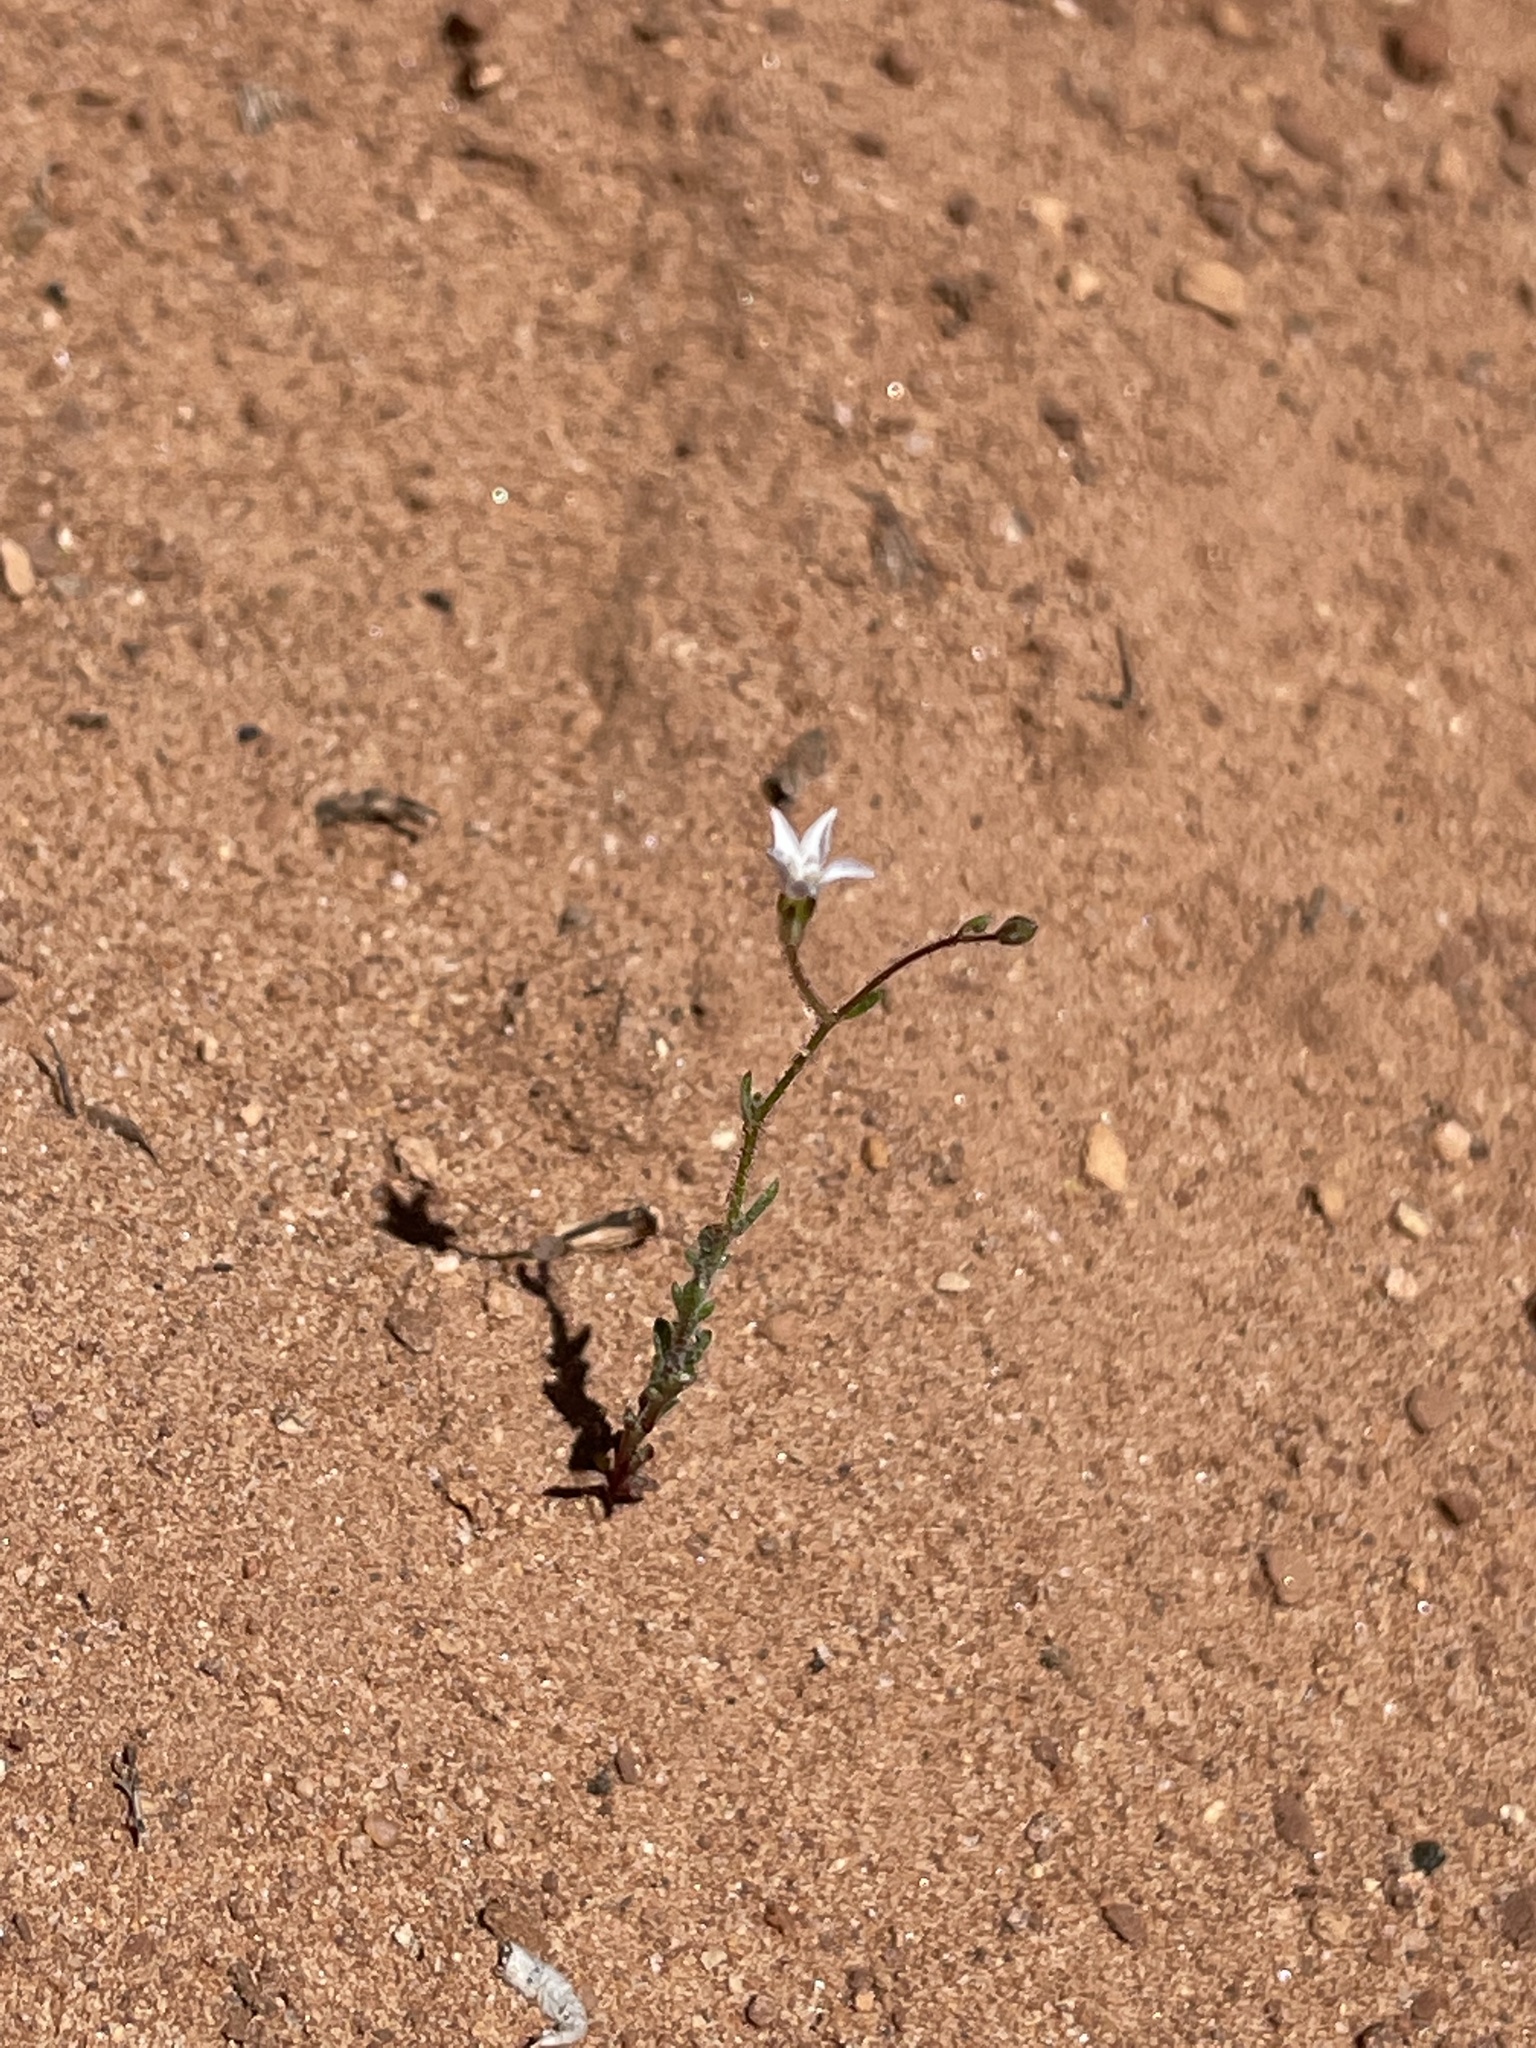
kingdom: Plantae
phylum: Tracheophyta
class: Magnoliopsida
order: Ericales
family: Polemoniaceae
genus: Gilia
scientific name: Gilia clokeyi
